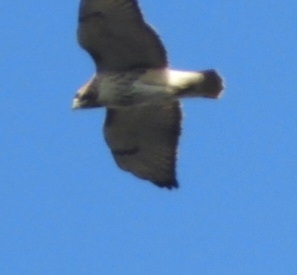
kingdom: Animalia
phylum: Chordata
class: Aves
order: Accipitriformes
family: Accipitridae
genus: Buteo
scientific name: Buteo jamaicensis
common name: Red-tailed hawk
